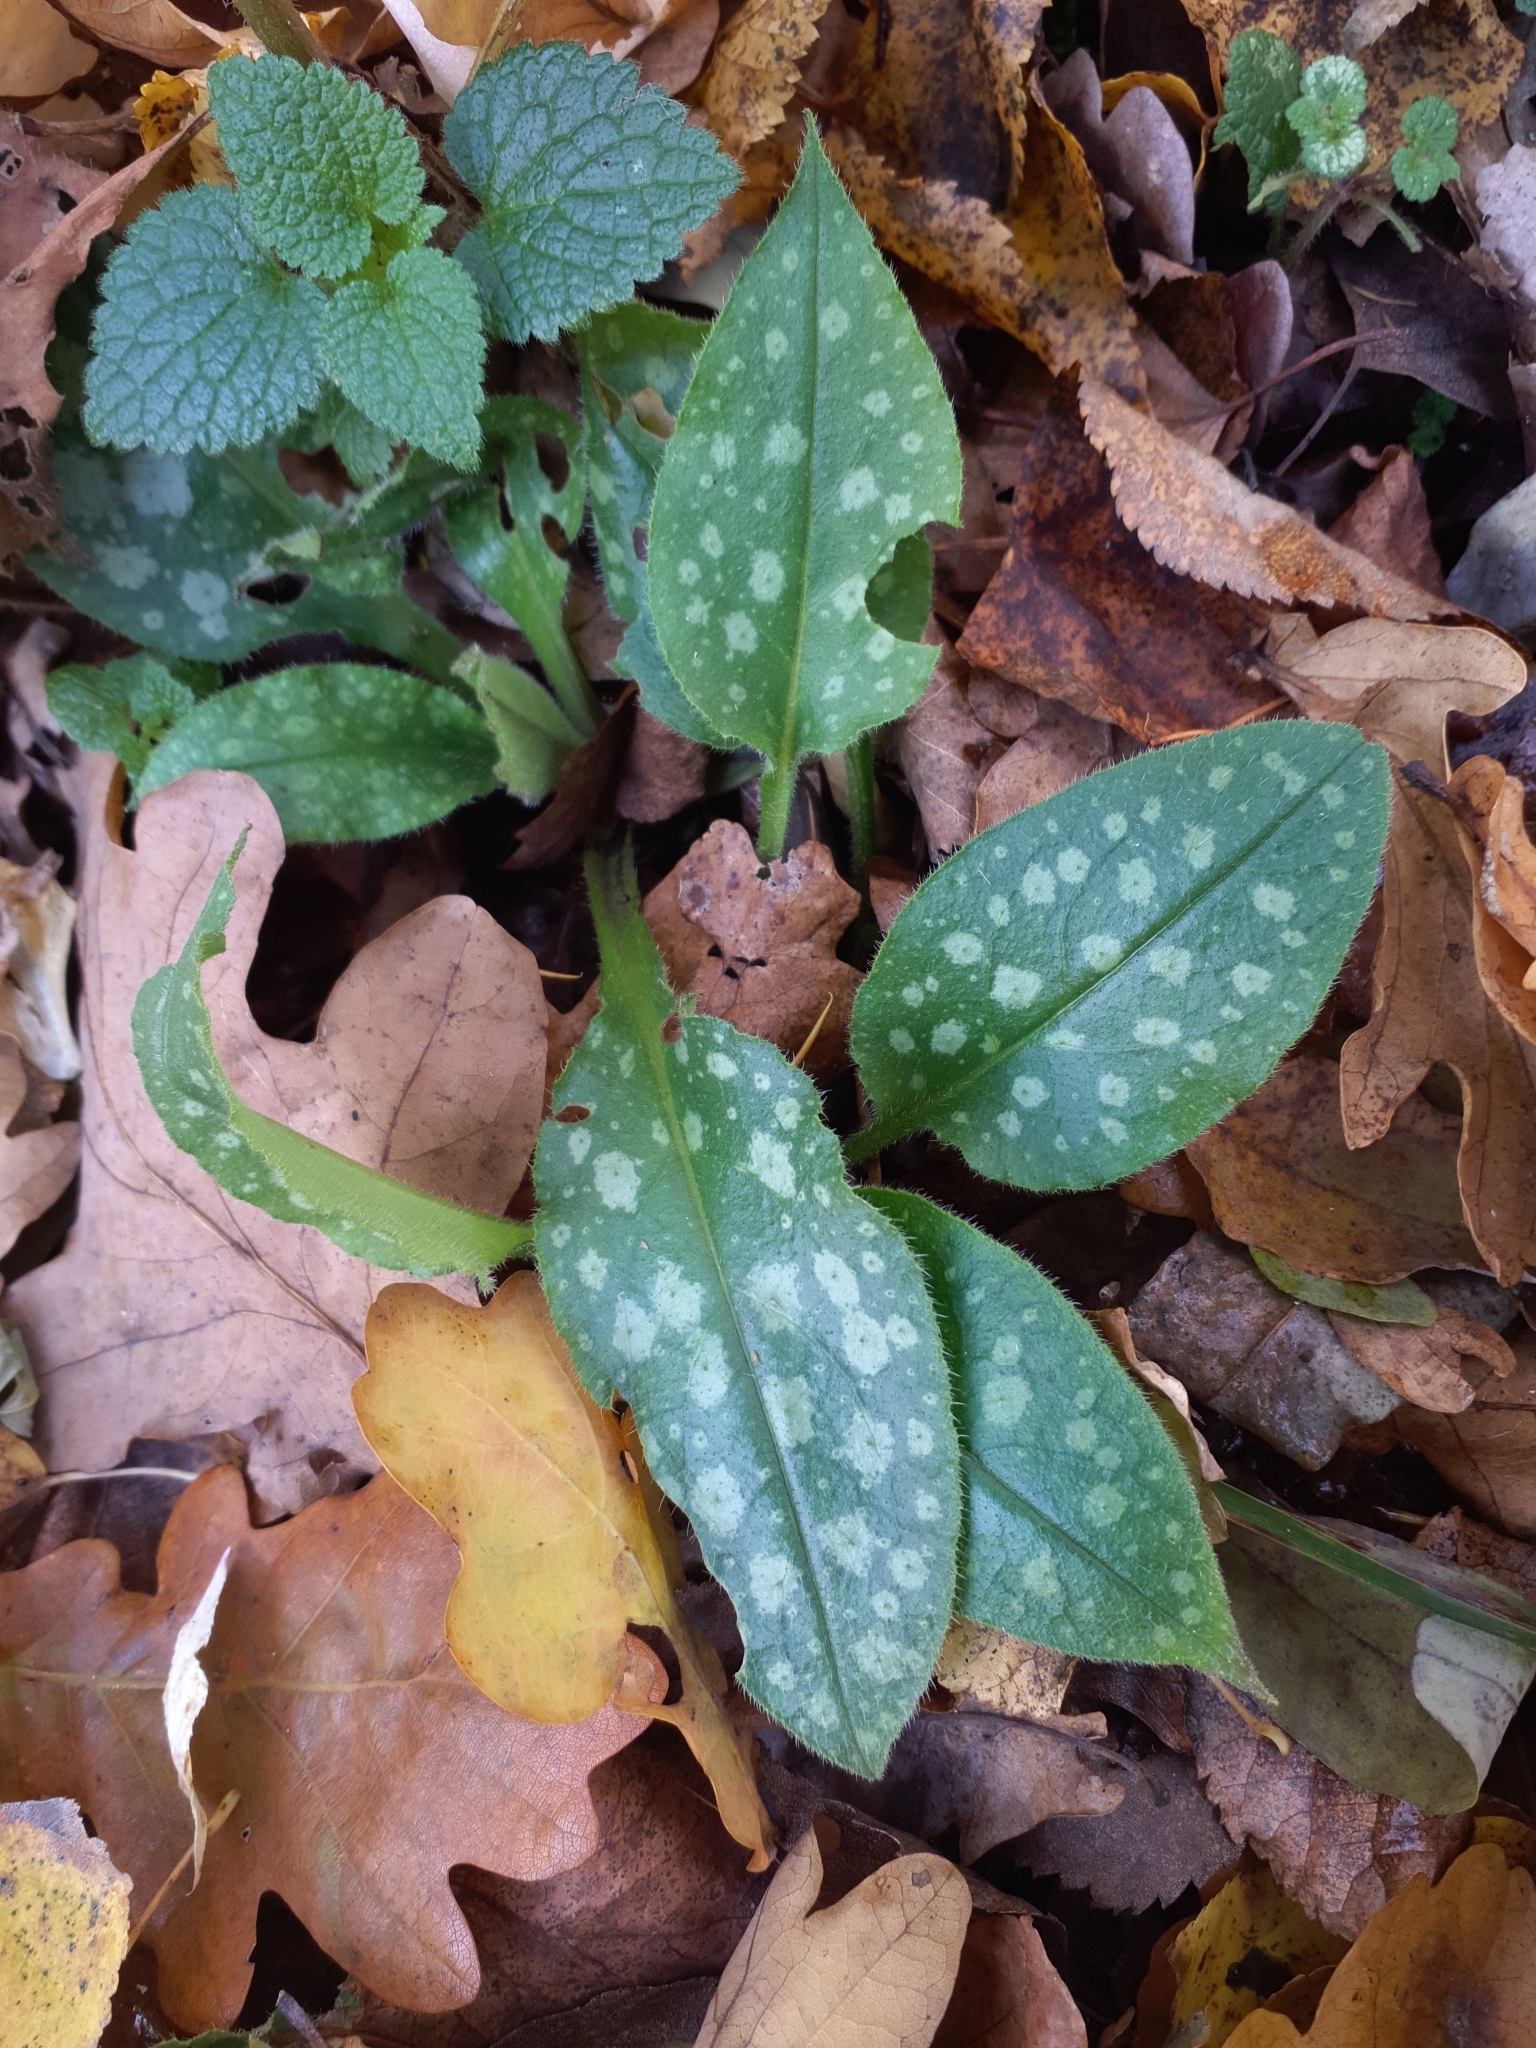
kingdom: Plantae
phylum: Tracheophyta
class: Magnoliopsida
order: Boraginales
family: Boraginaceae
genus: Pulmonaria
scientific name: Pulmonaria saccharata
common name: Bethlehem lungwort
